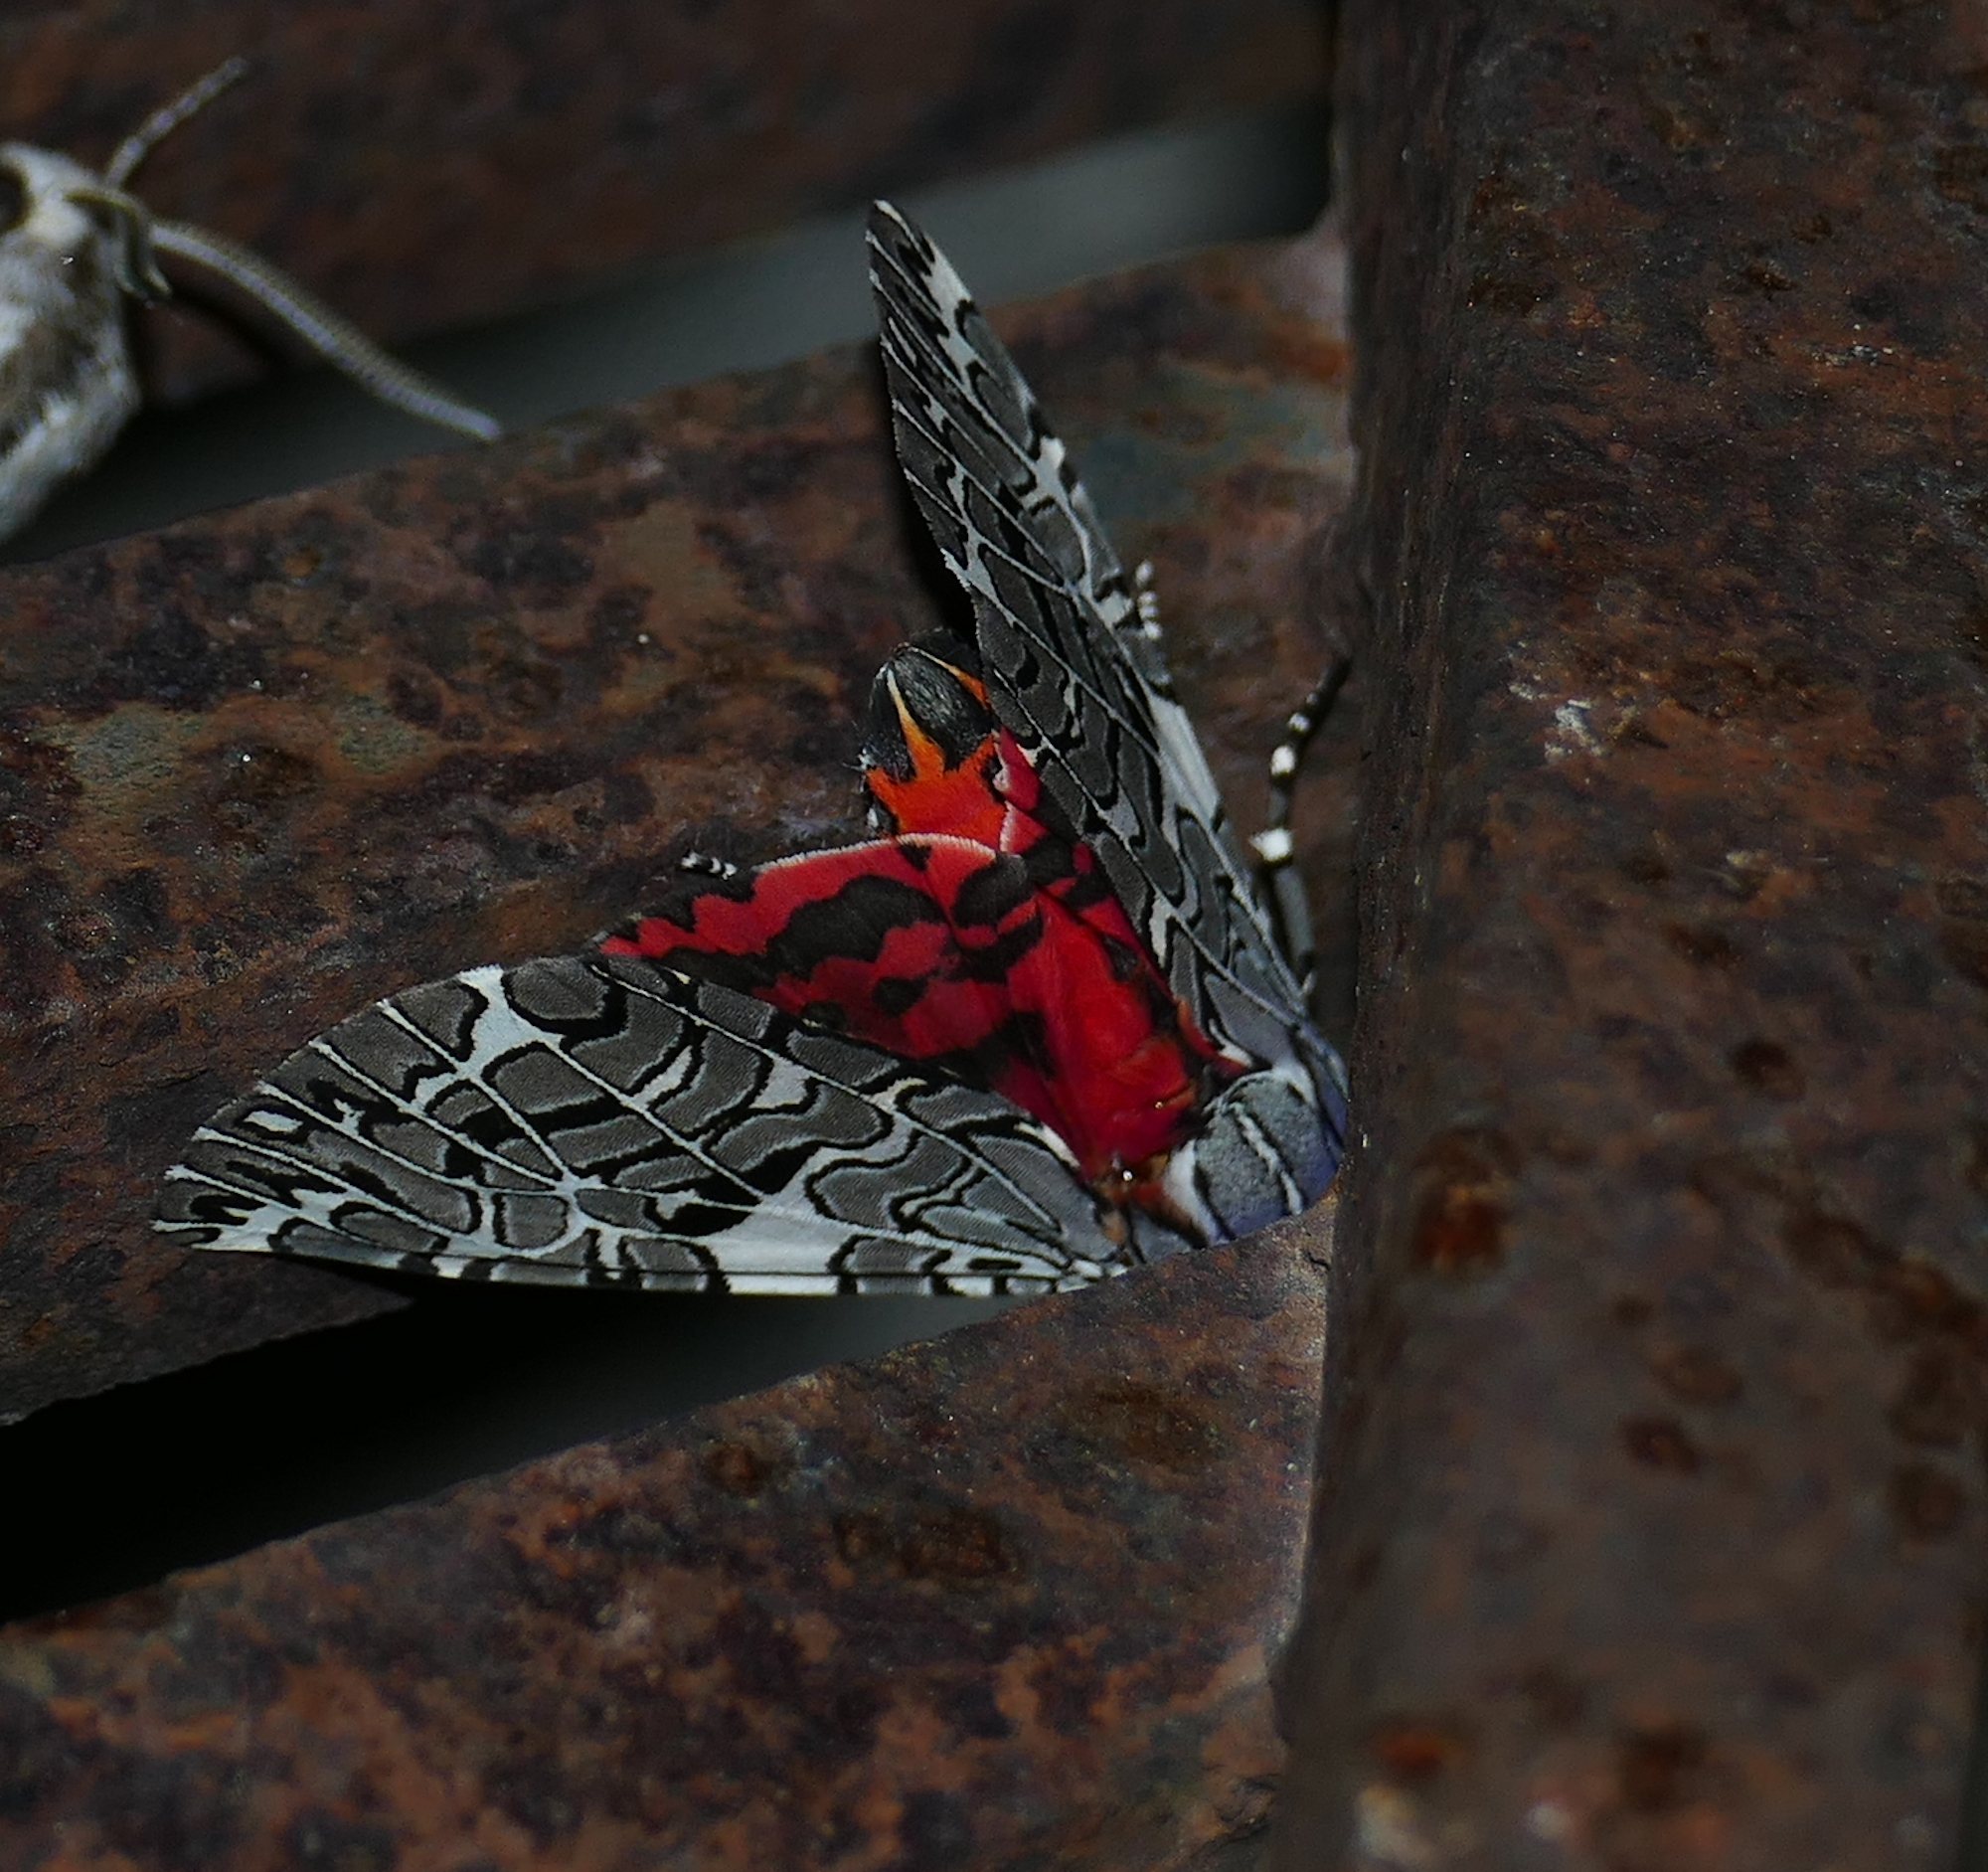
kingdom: Animalia
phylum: Arthropoda
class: Insecta
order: Lepidoptera
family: Erebidae
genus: Arachnis
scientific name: Arachnis picta
